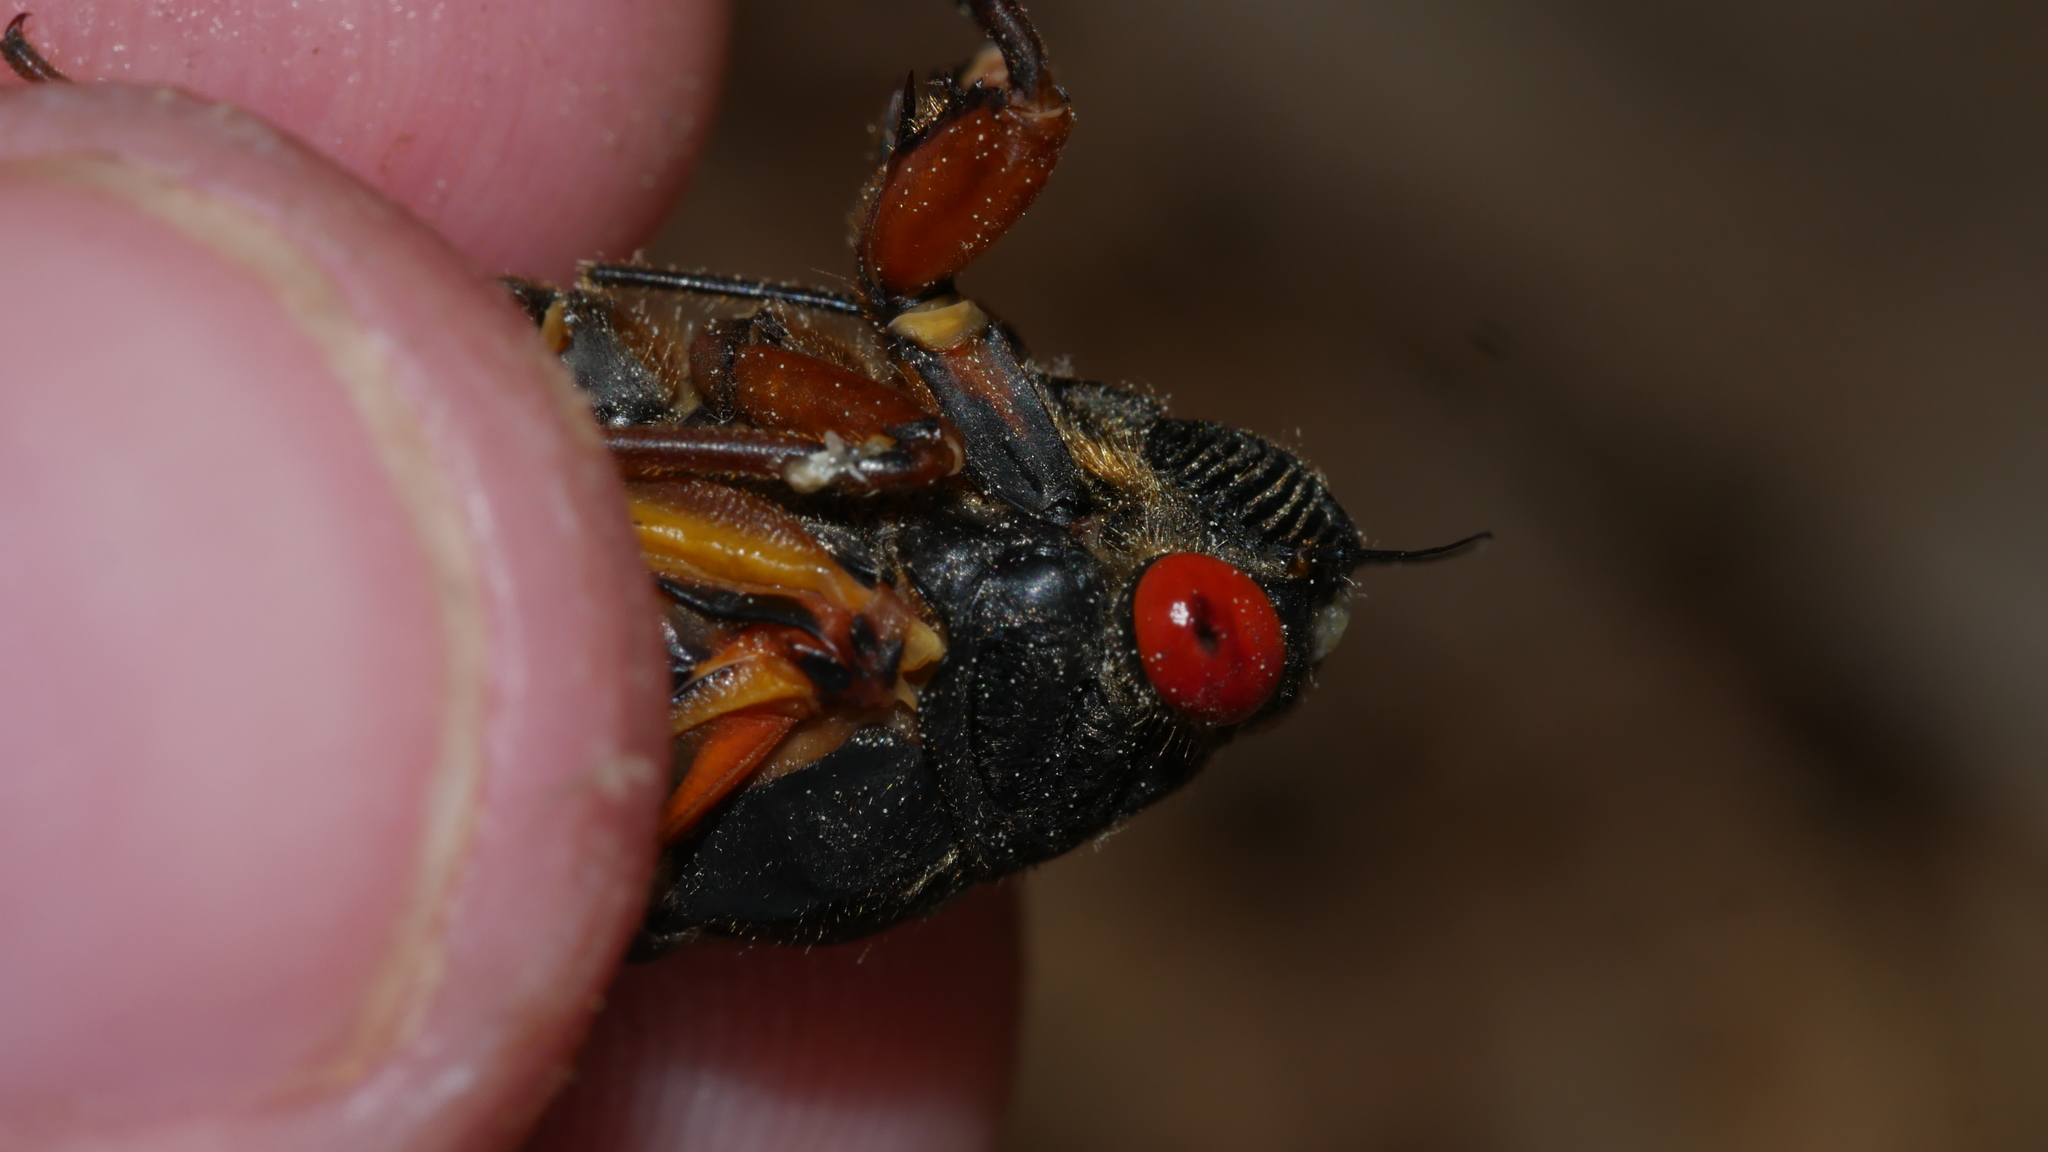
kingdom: Animalia
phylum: Arthropoda
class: Insecta
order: Hemiptera
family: Cicadidae
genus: Magicicada
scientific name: Magicicada septendecula
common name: Decula periodical cicada
